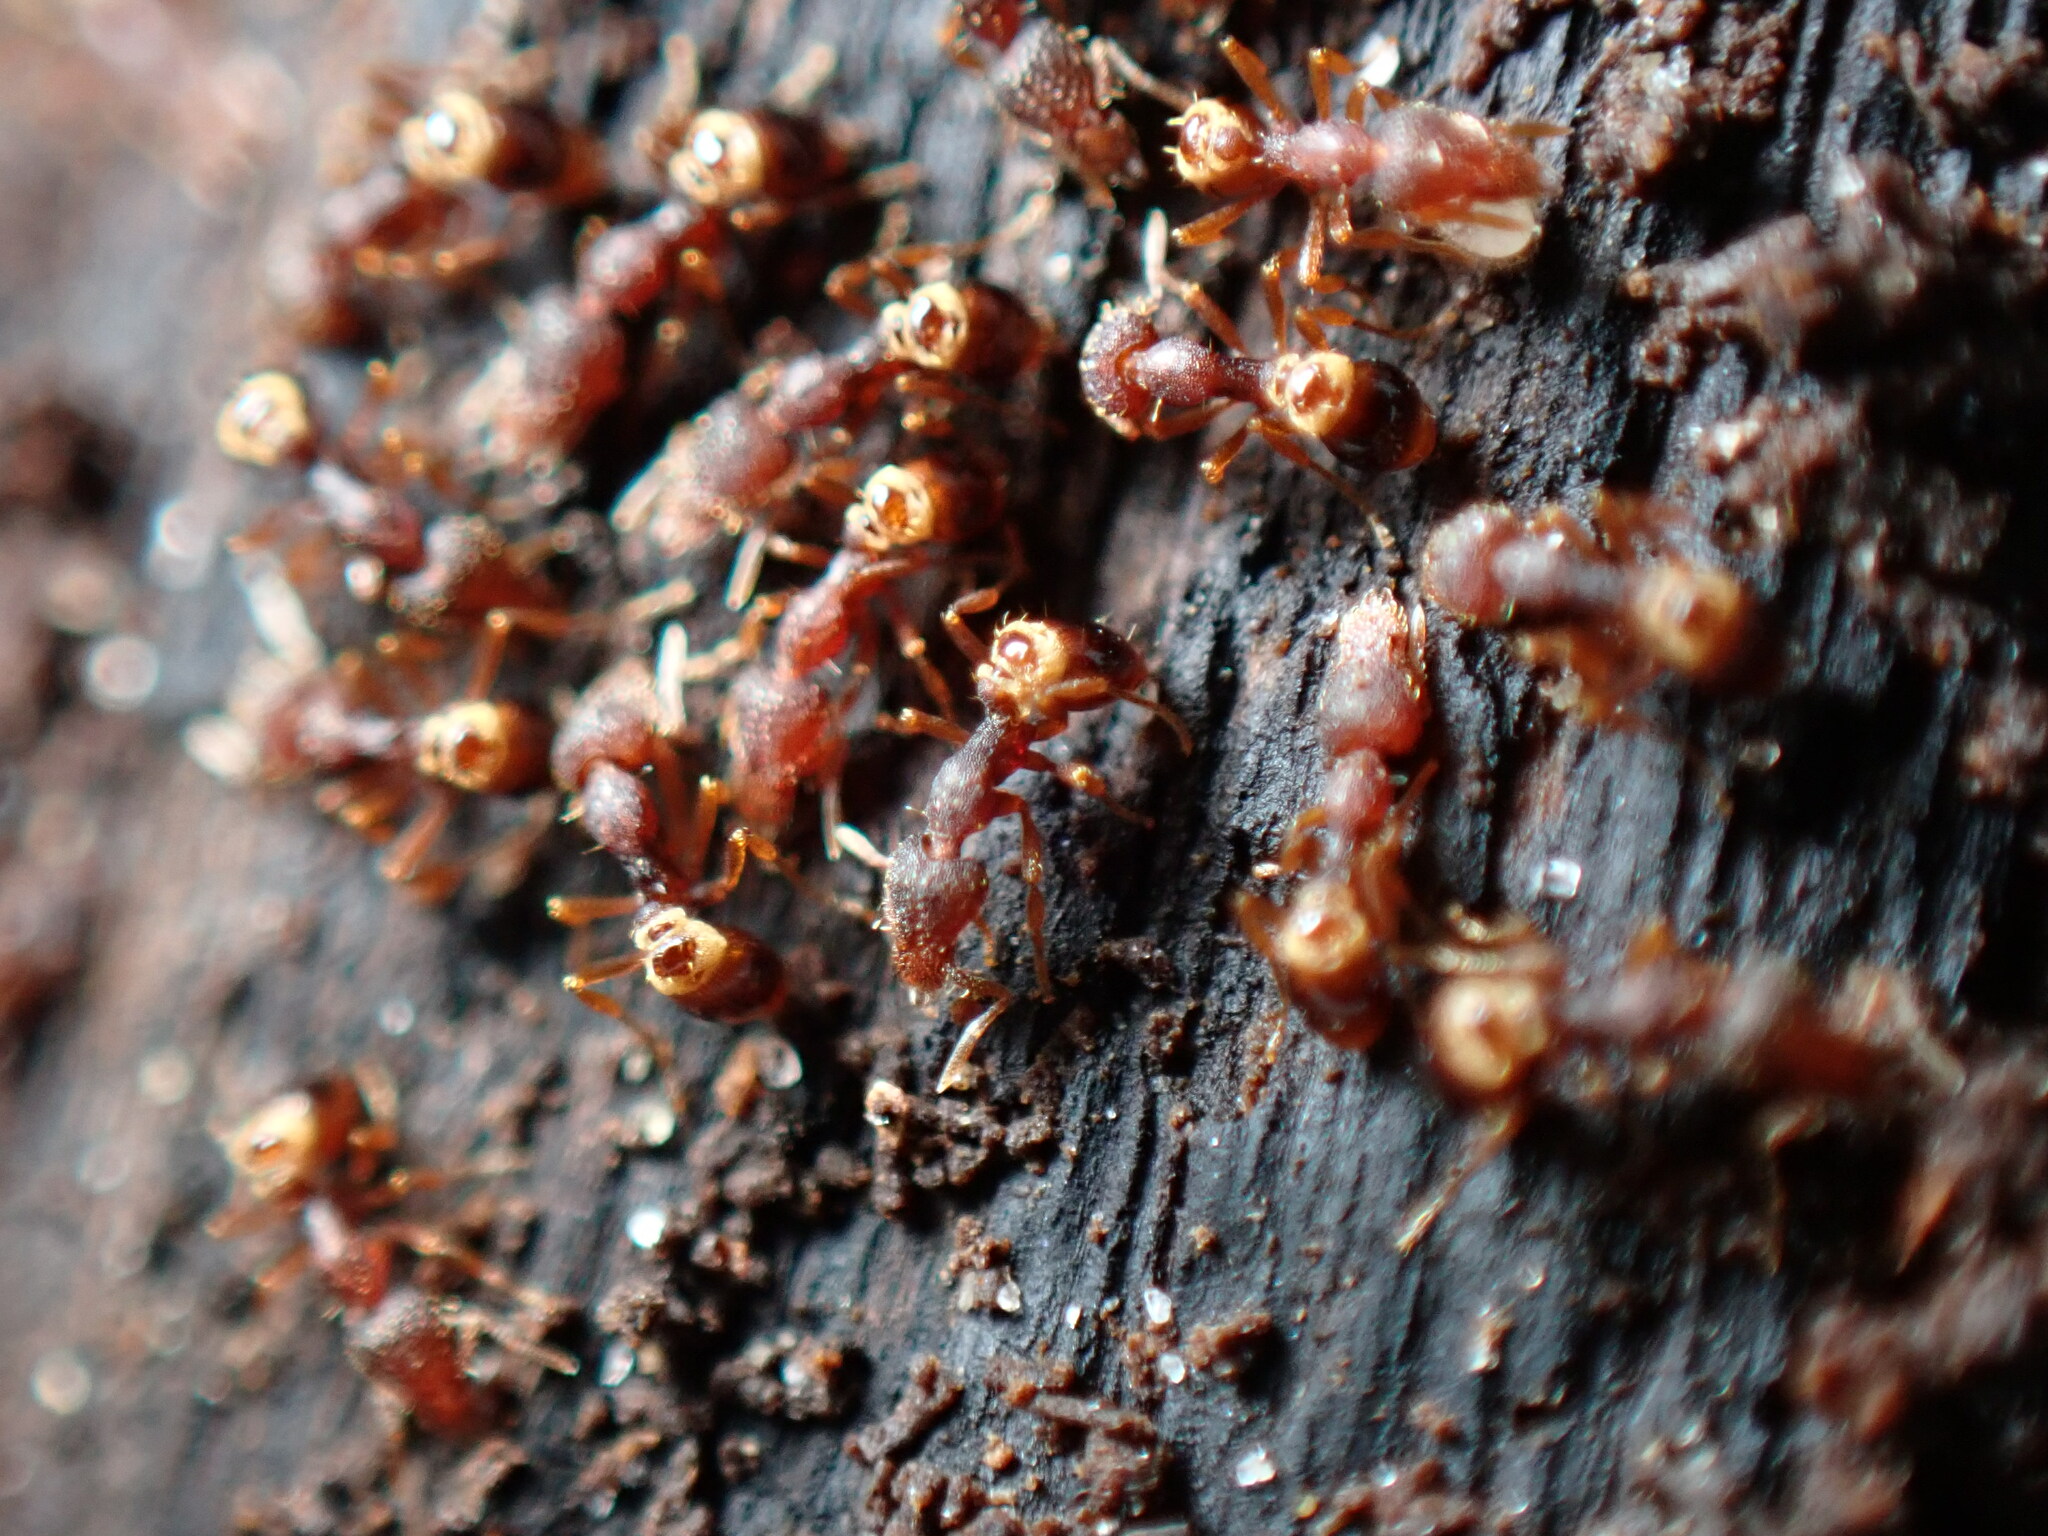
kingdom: Animalia
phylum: Arthropoda
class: Insecta
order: Hymenoptera
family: Formicidae
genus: Pyramica
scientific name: Pyramica rostrata
